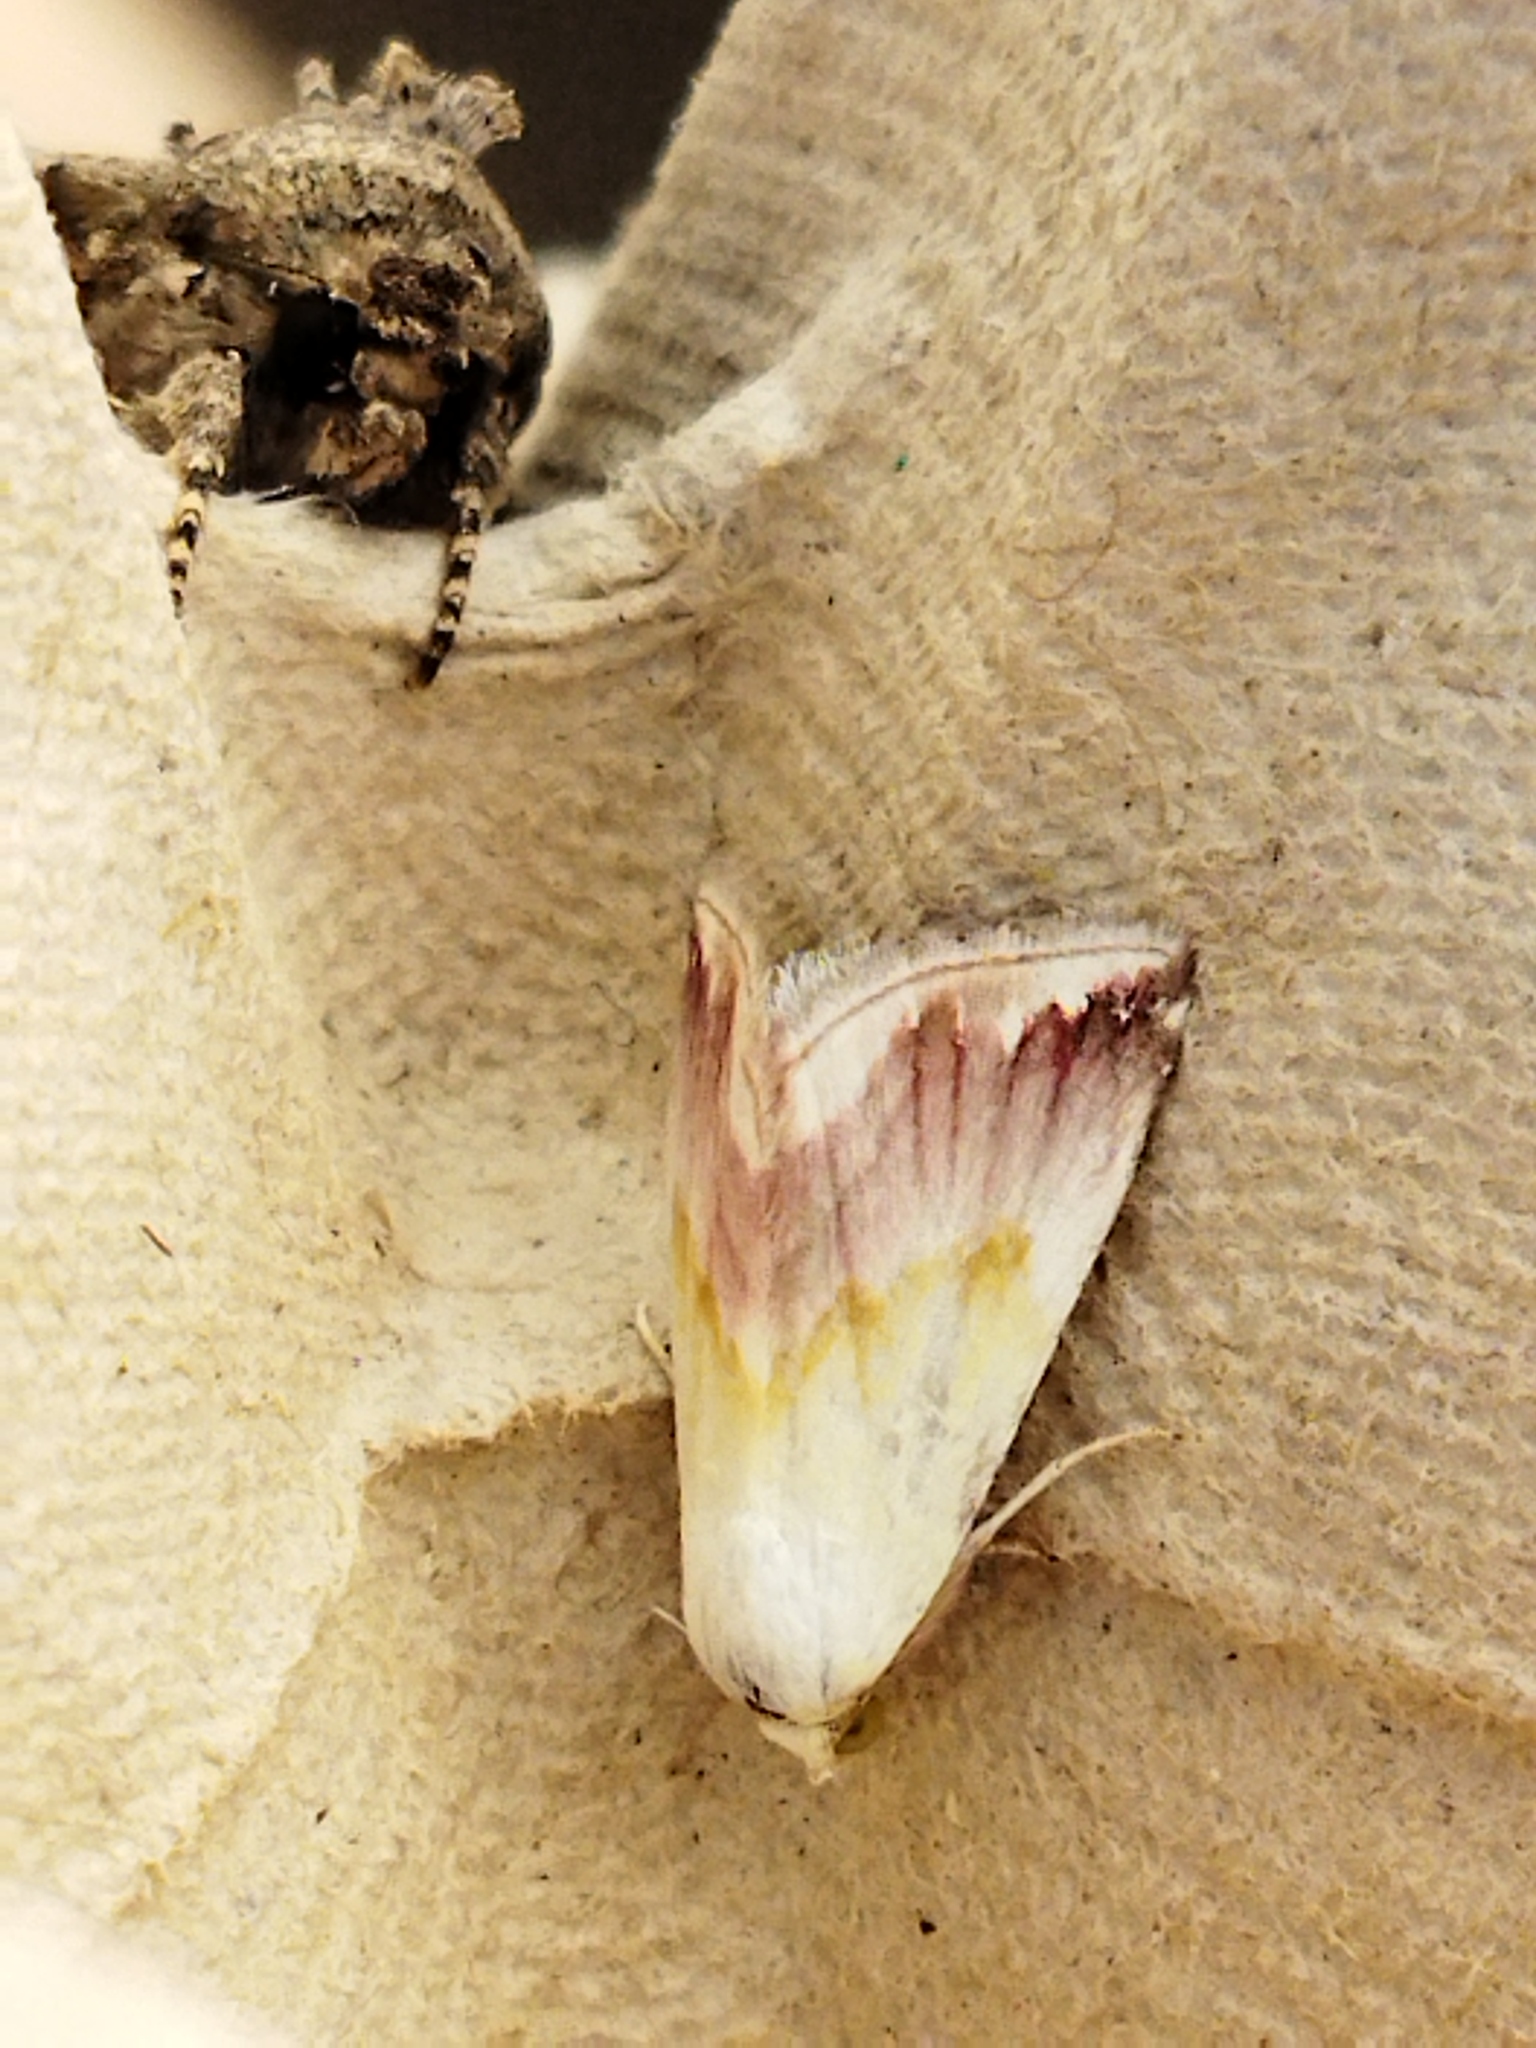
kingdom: Animalia
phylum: Arthropoda
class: Insecta
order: Lepidoptera
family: Noctuidae
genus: Eublemma
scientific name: Eublemma purpurina
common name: Beautiful marbled
